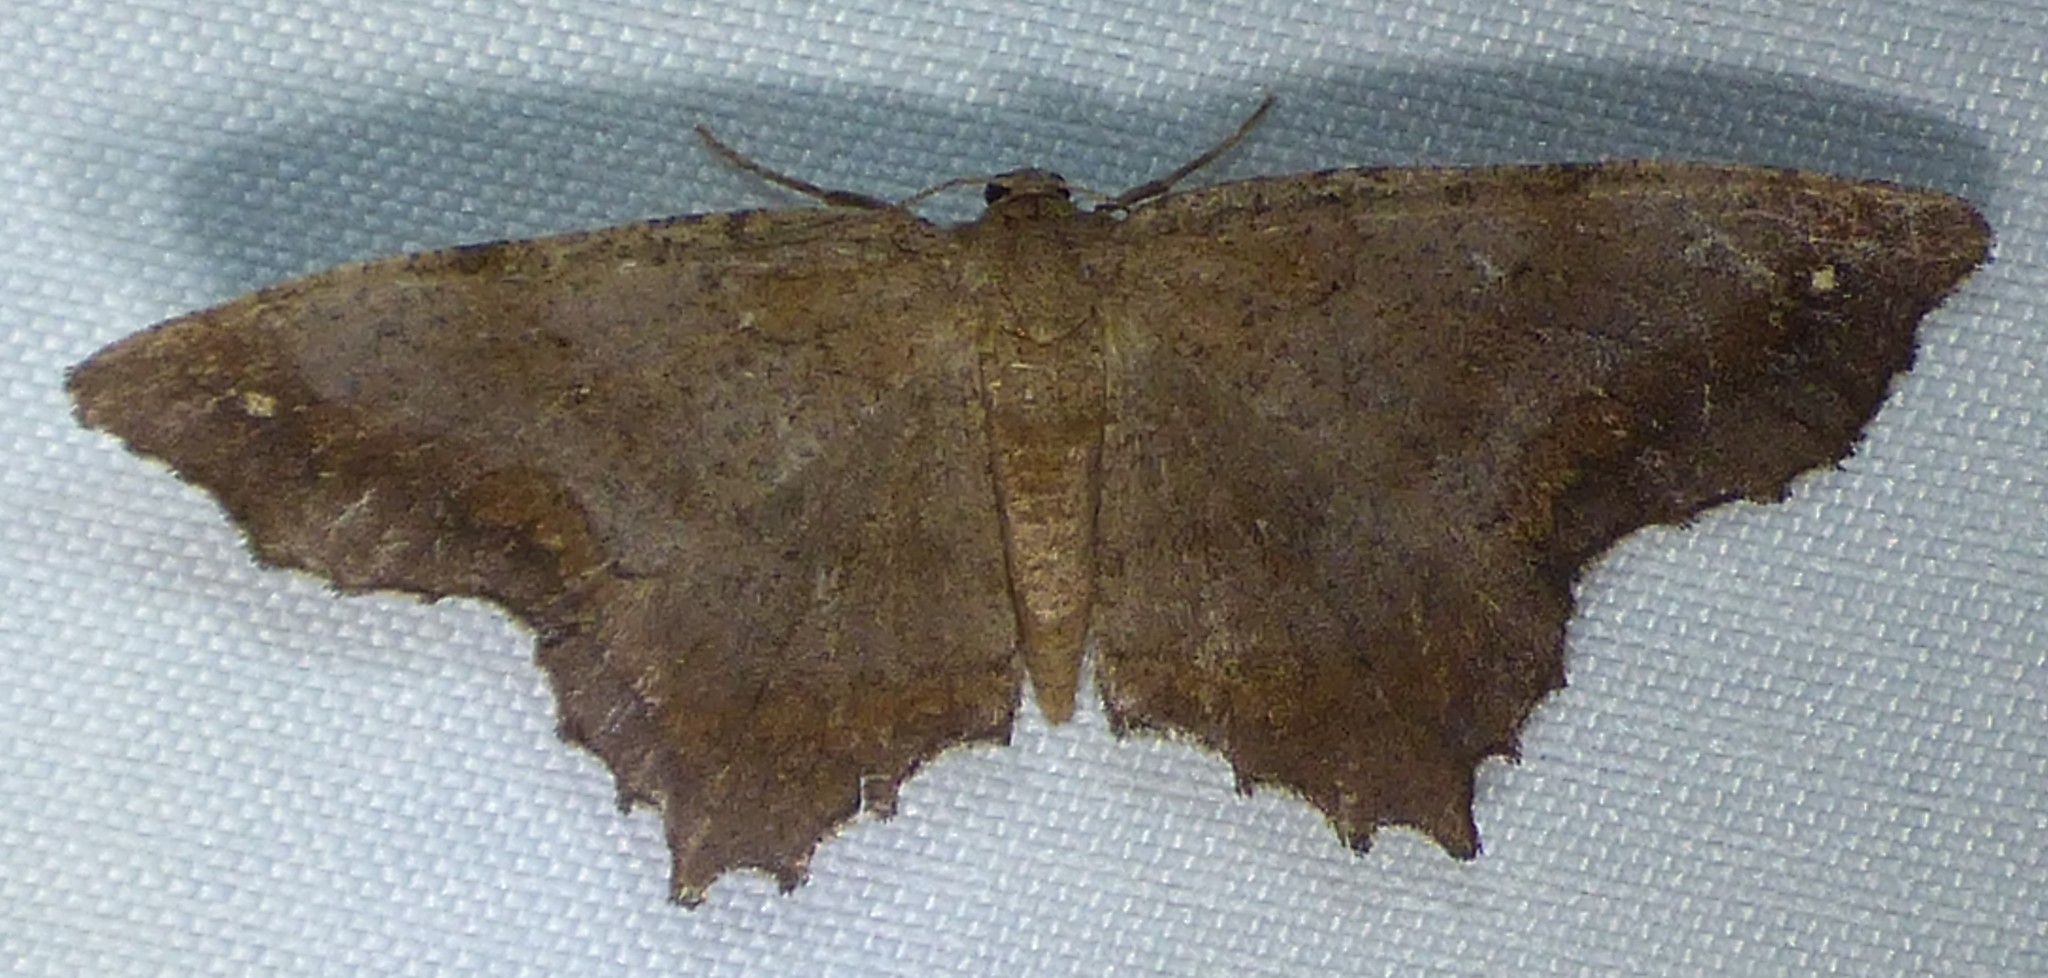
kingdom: Animalia
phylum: Arthropoda
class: Insecta
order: Lepidoptera
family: Geometridae
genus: Hypagyrtis
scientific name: Hypagyrtis esther
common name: Esther moth
